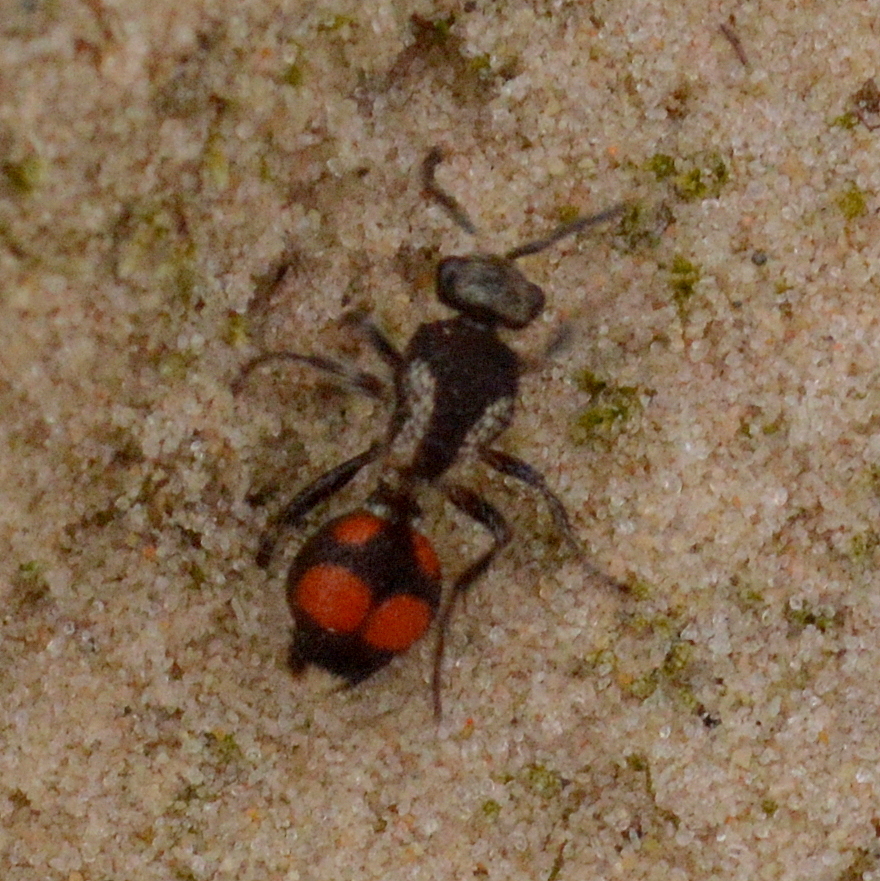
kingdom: Animalia
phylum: Arthropoda
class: Insecta
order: Hymenoptera
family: Mutillidae
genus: Traumatomutilla
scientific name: Traumatomutilla ocellaris
